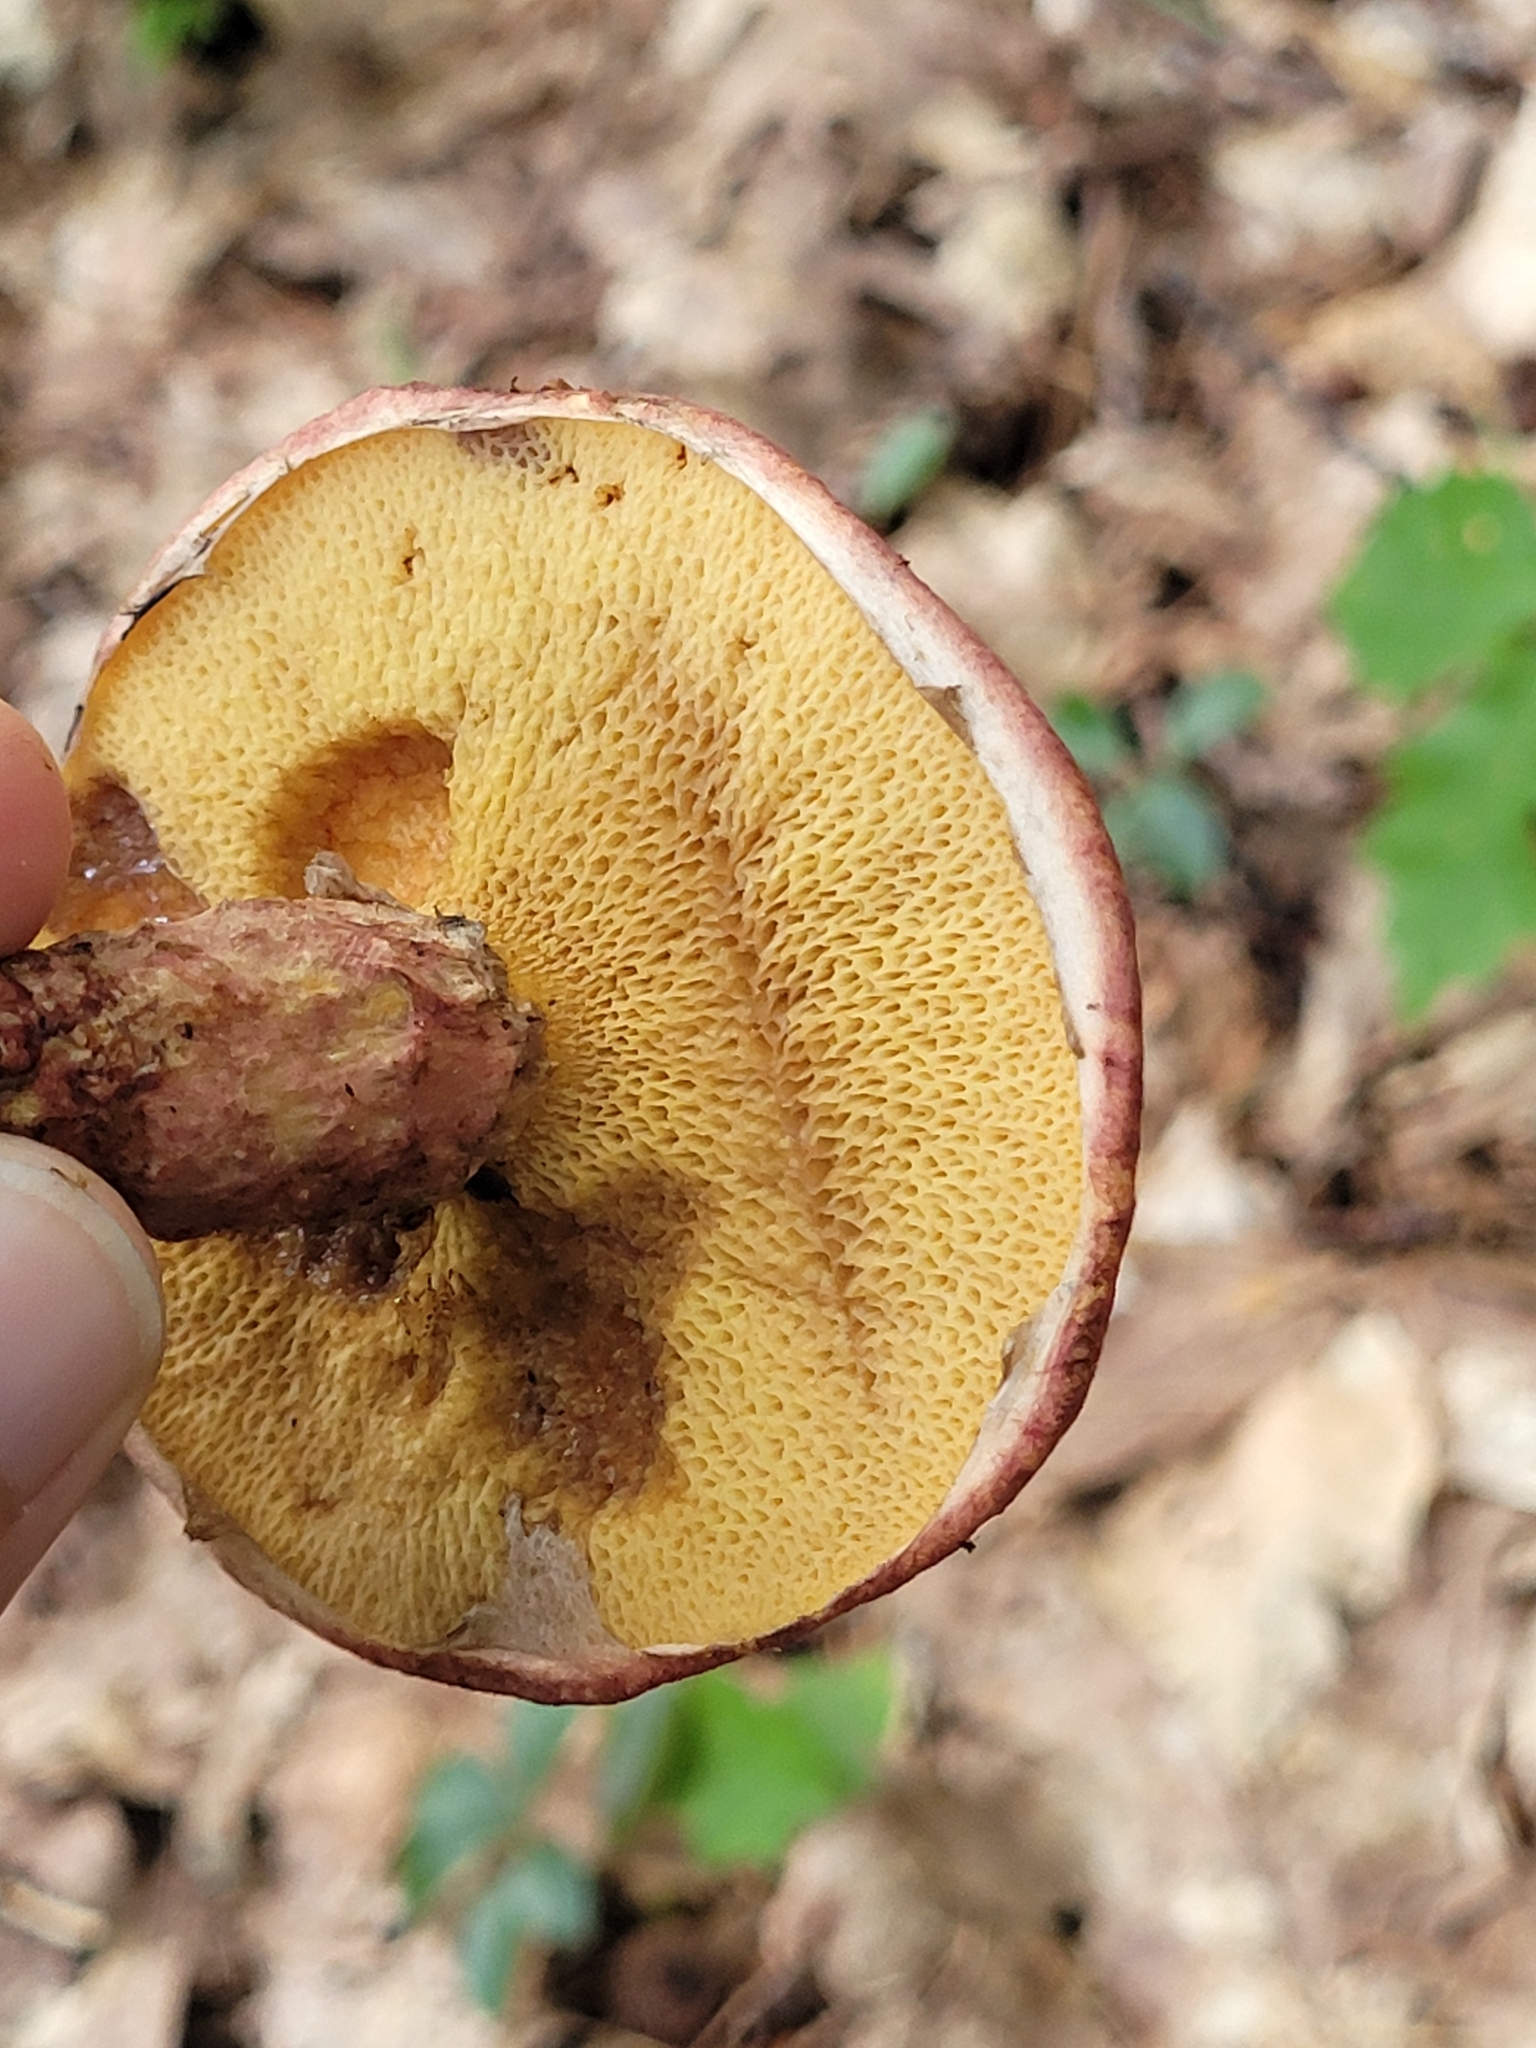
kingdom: Fungi
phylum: Basidiomycota
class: Agaricomycetes
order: Boletales
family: Suillaceae
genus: Suillus
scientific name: Suillus spraguei
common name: Painted suillus
